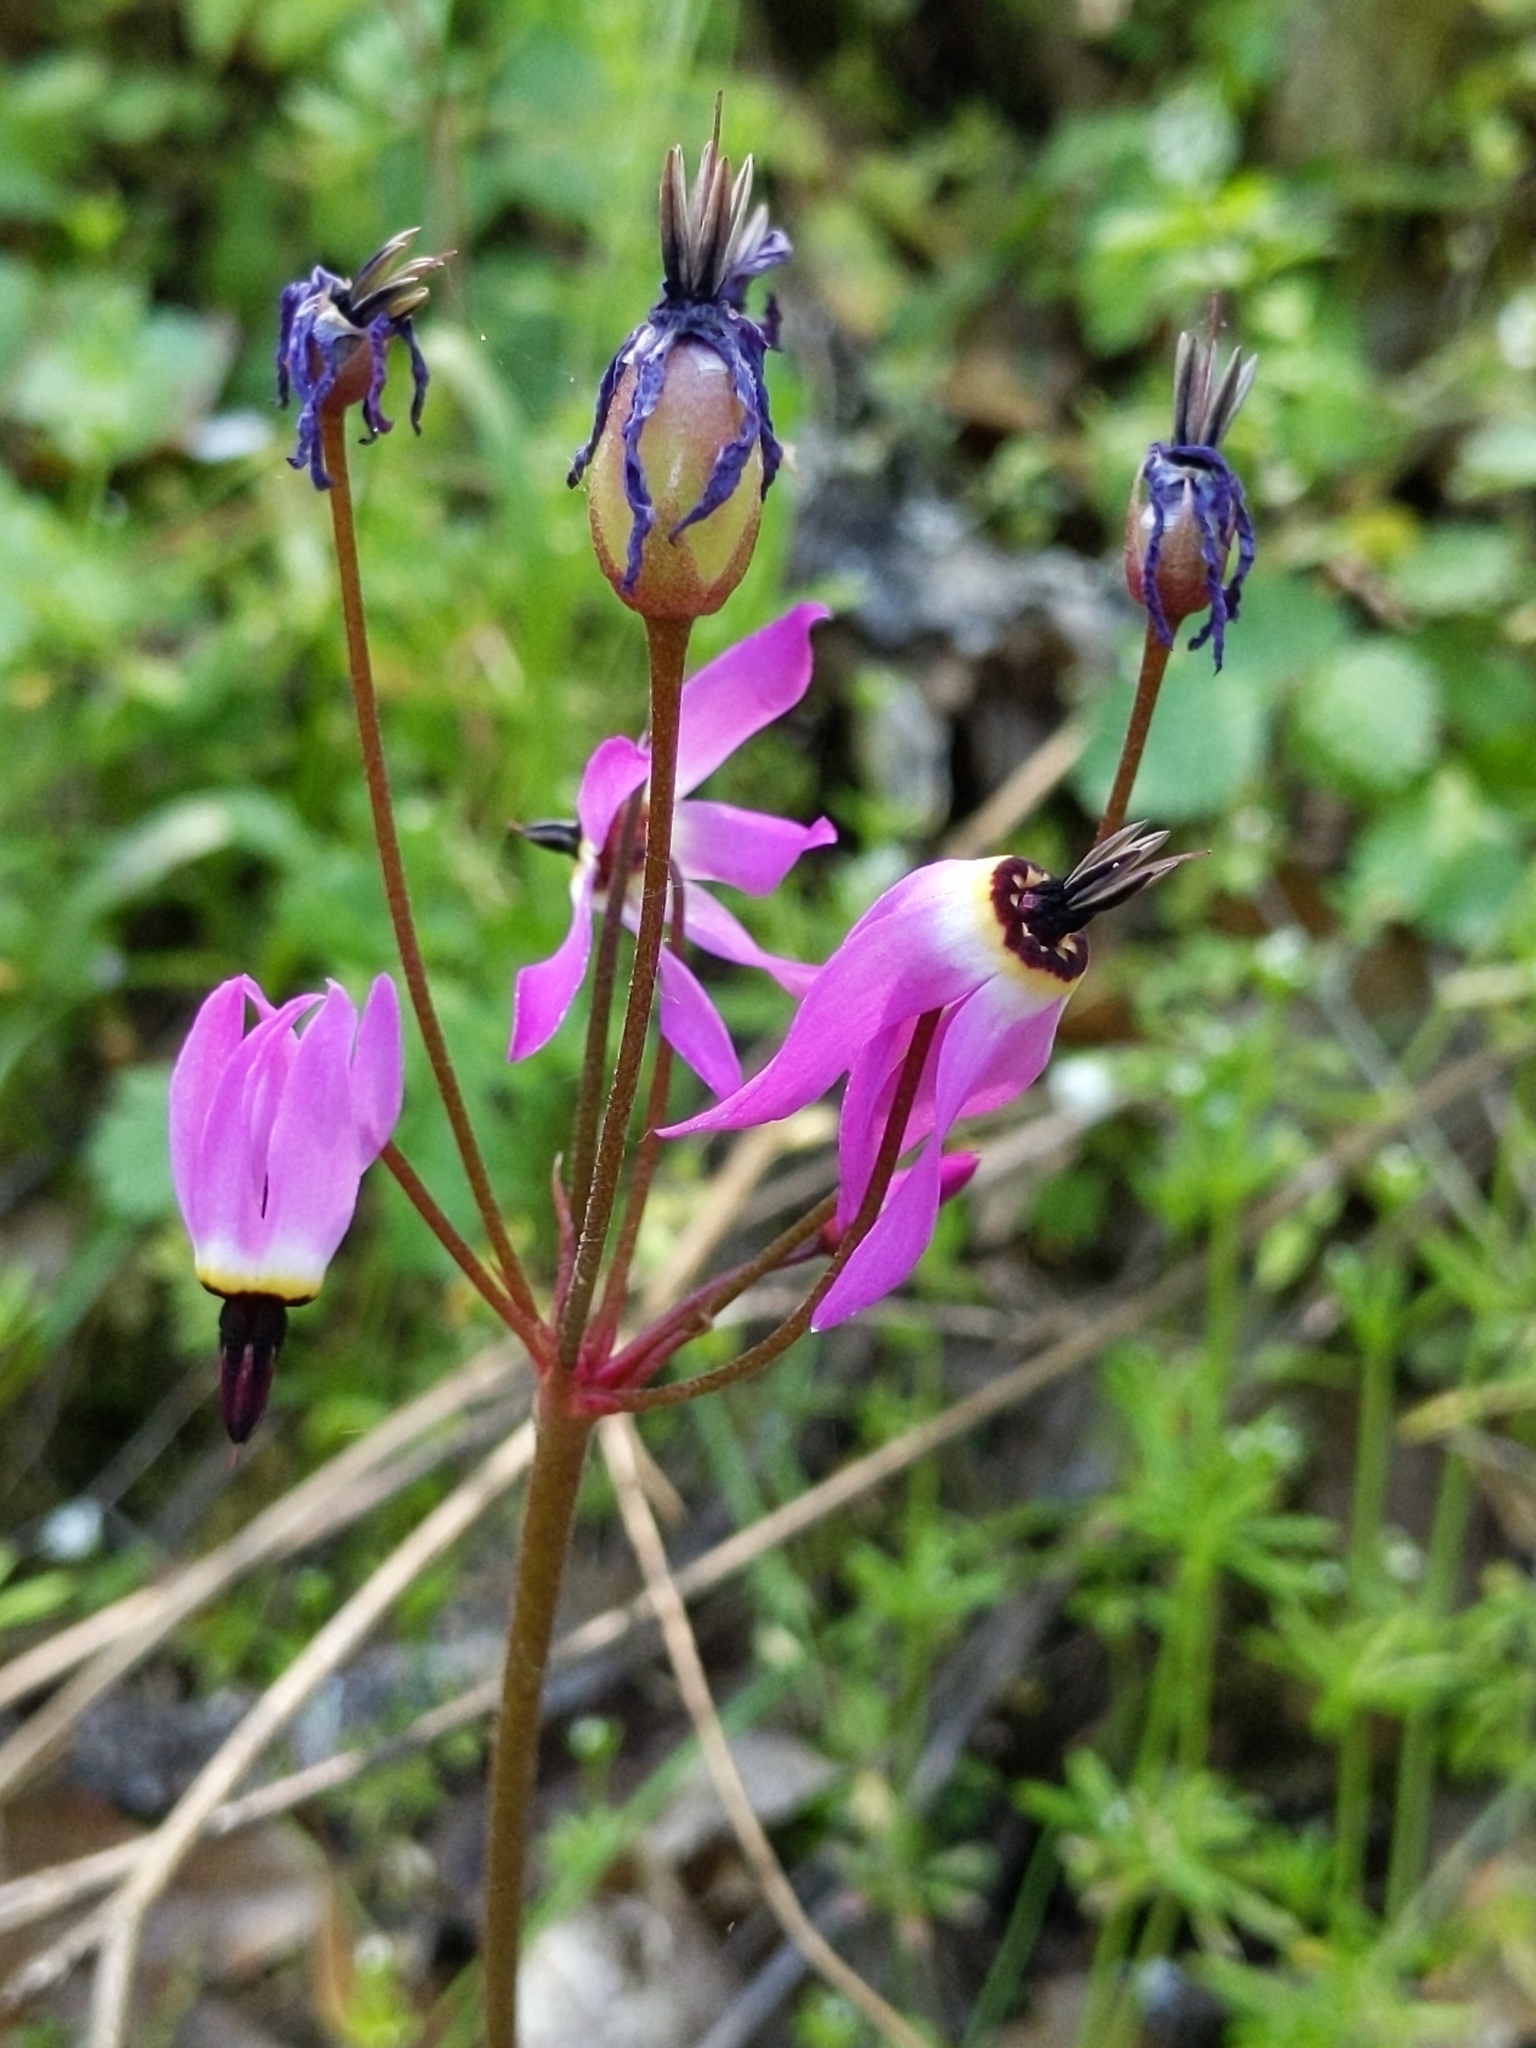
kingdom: Plantae
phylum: Tracheophyta
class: Magnoliopsida
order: Ericales
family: Primulaceae
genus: Dodecatheon
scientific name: Dodecatheon hendersonii
